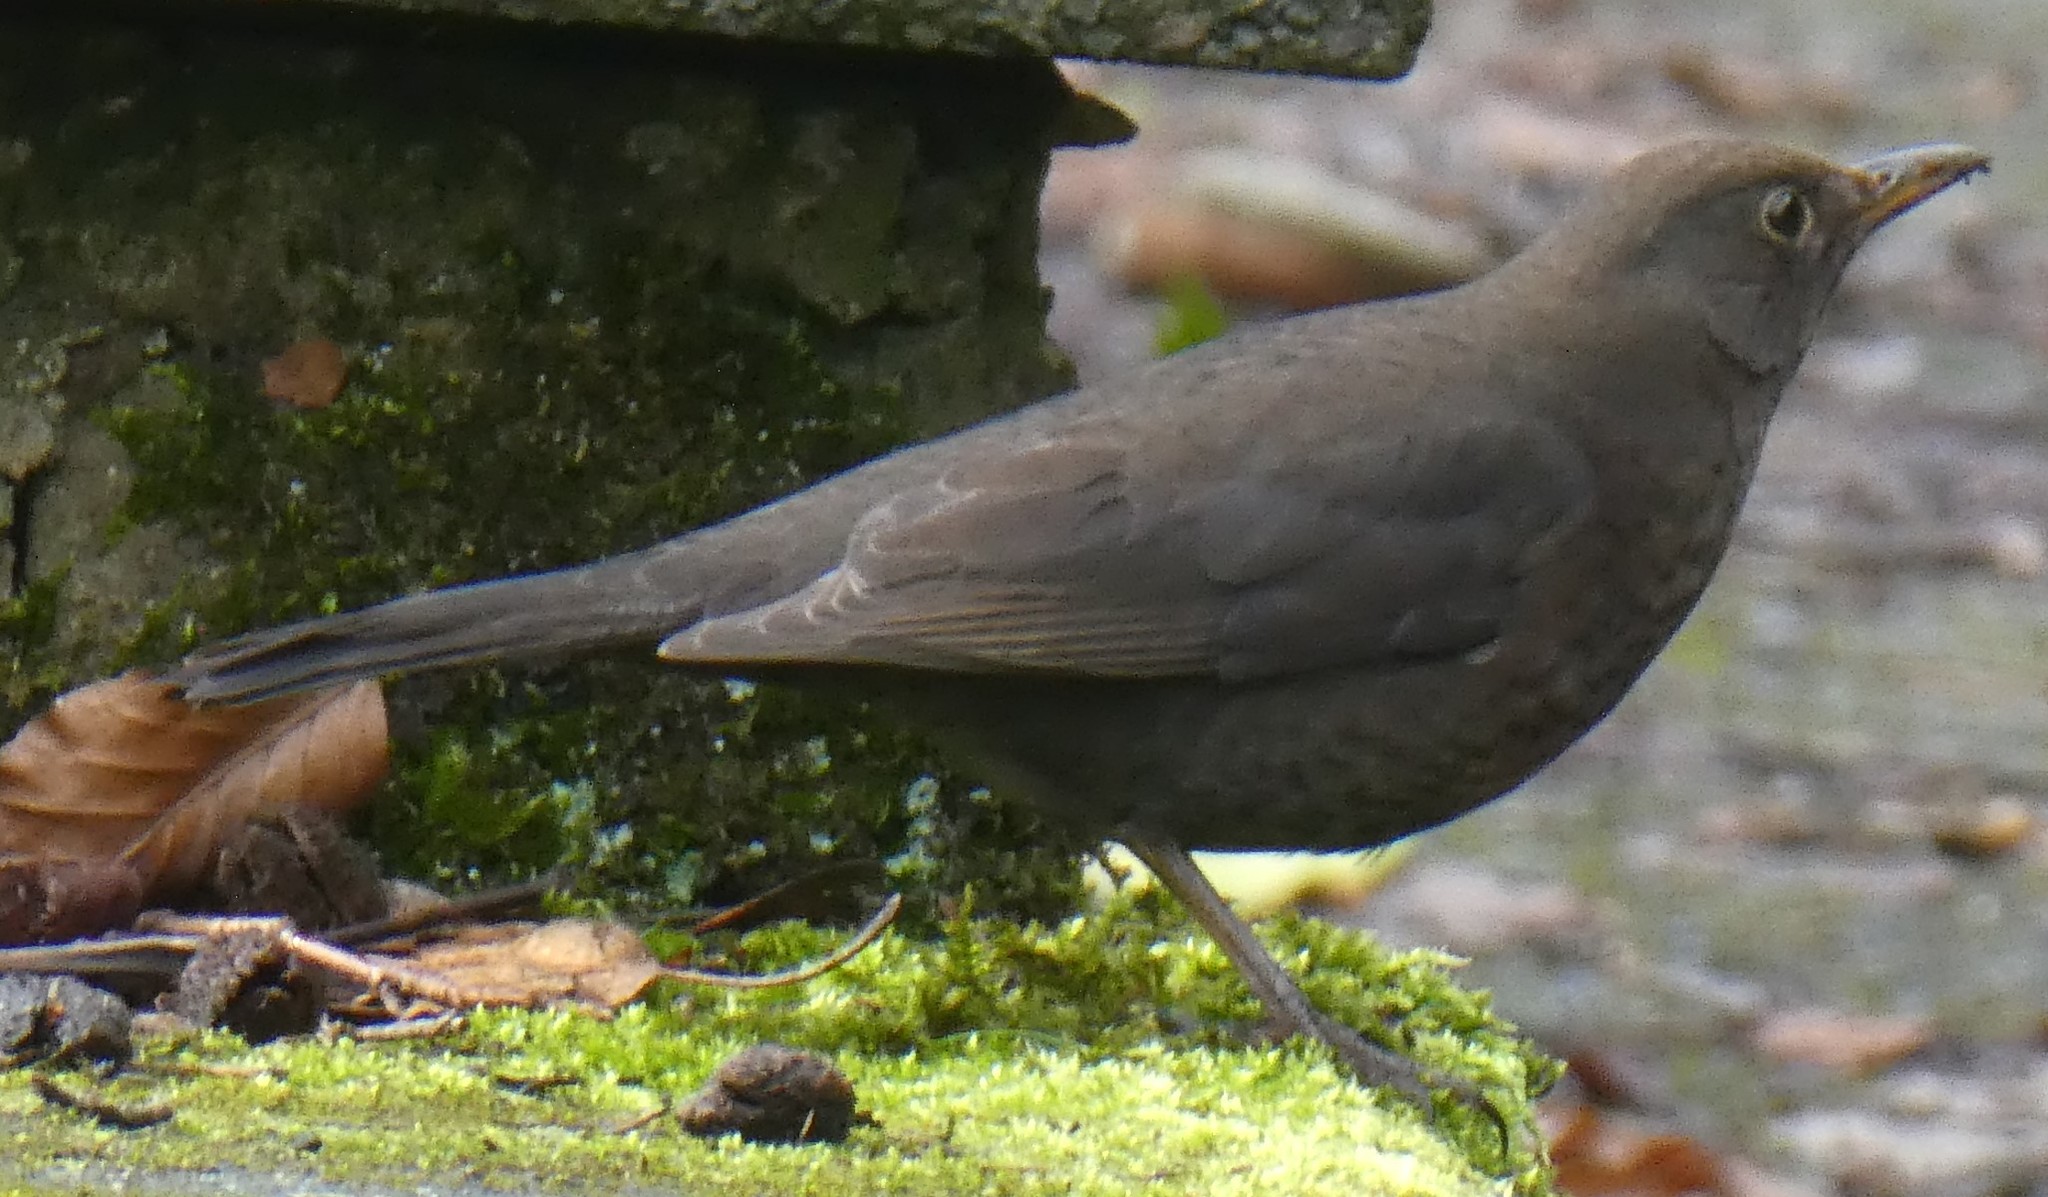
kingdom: Animalia
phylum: Chordata
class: Aves
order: Passeriformes
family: Turdidae
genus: Turdus
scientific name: Turdus merula
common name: Common blackbird
